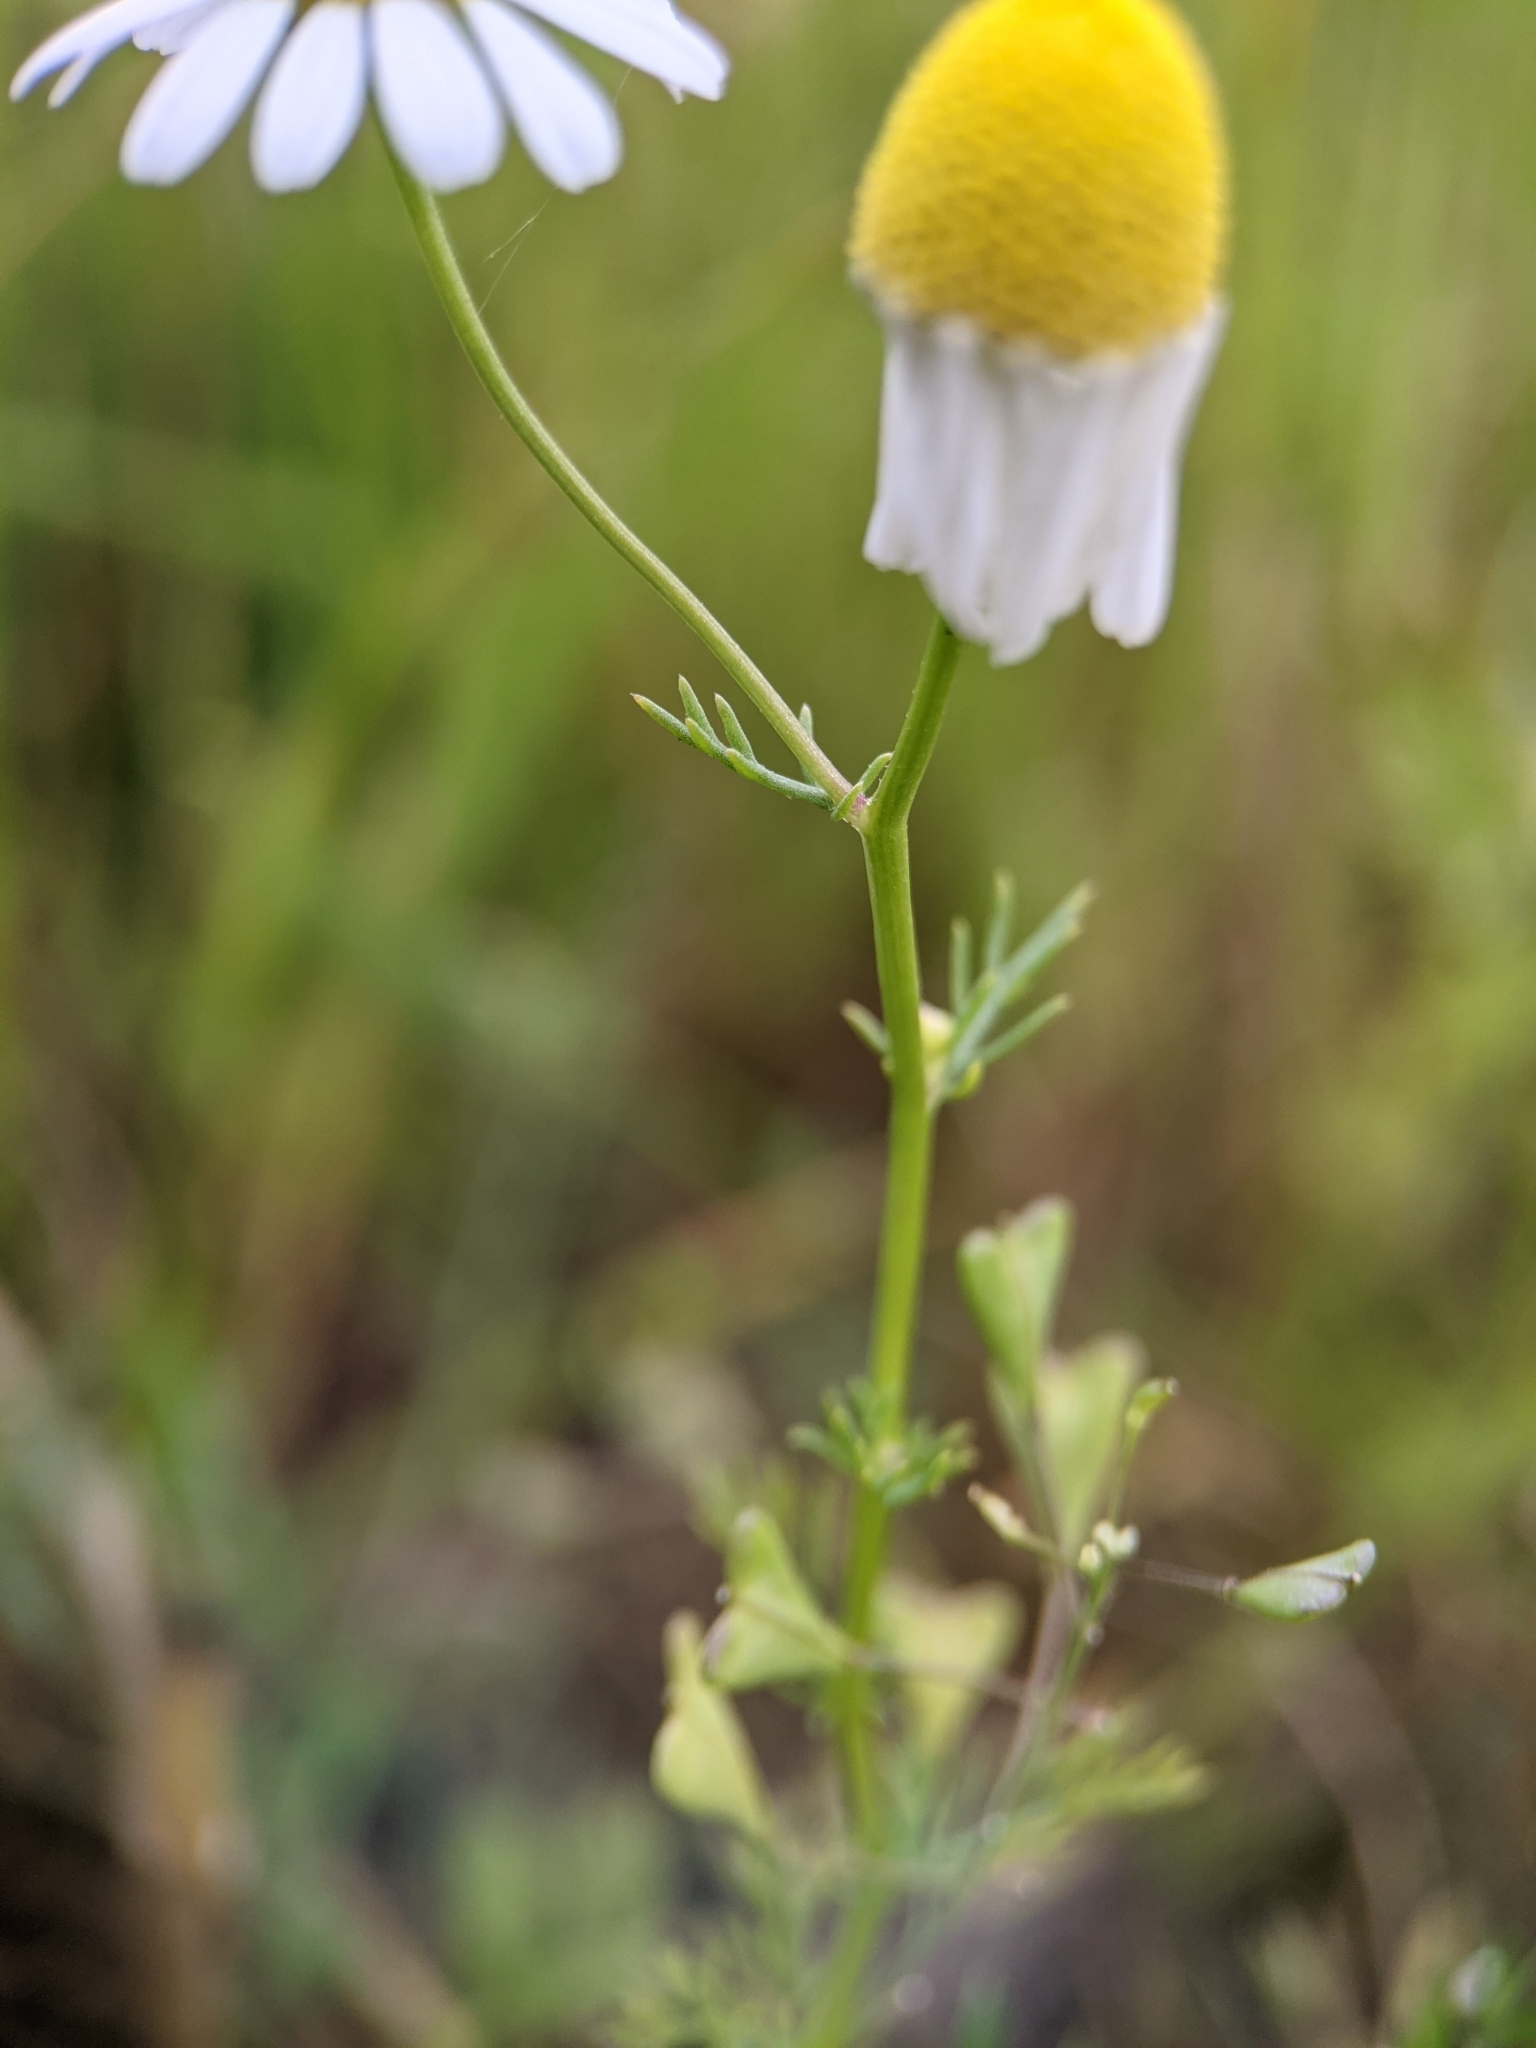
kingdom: Plantae
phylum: Tracheophyta
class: Magnoliopsida
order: Asterales
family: Asteraceae
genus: Matricaria
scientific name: Matricaria chamomilla
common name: Scented mayweed
